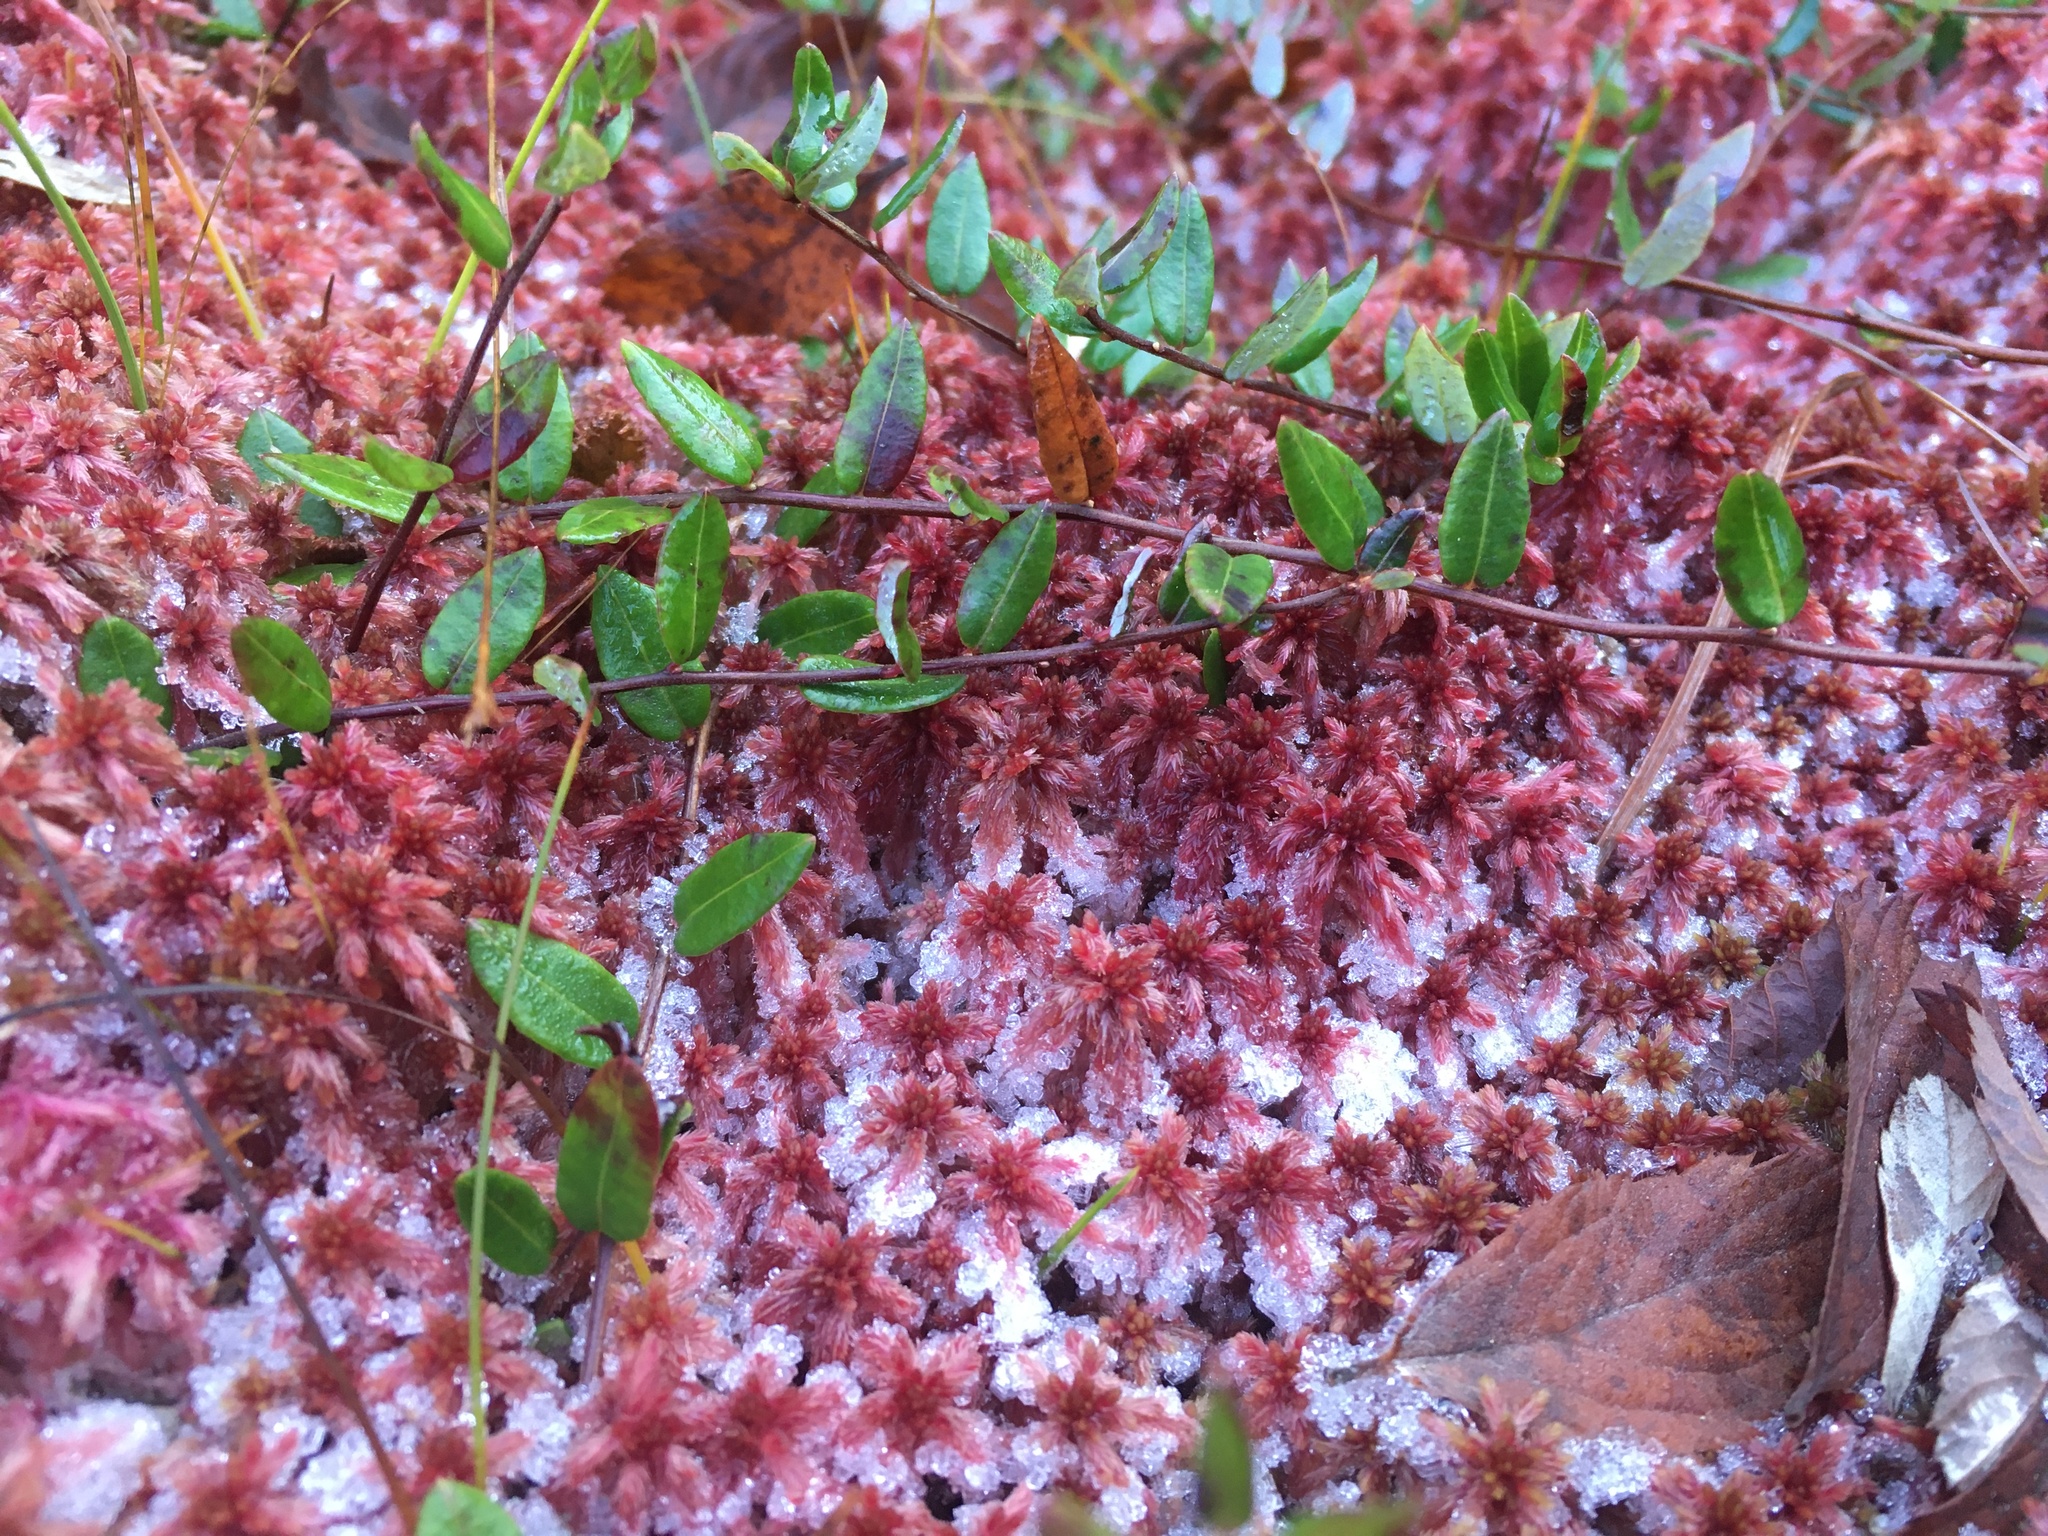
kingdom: Plantae
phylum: Tracheophyta
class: Magnoliopsida
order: Ericales
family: Ericaceae
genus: Vaccinium
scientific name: Vaccinium oxycoccos
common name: Cranberry
